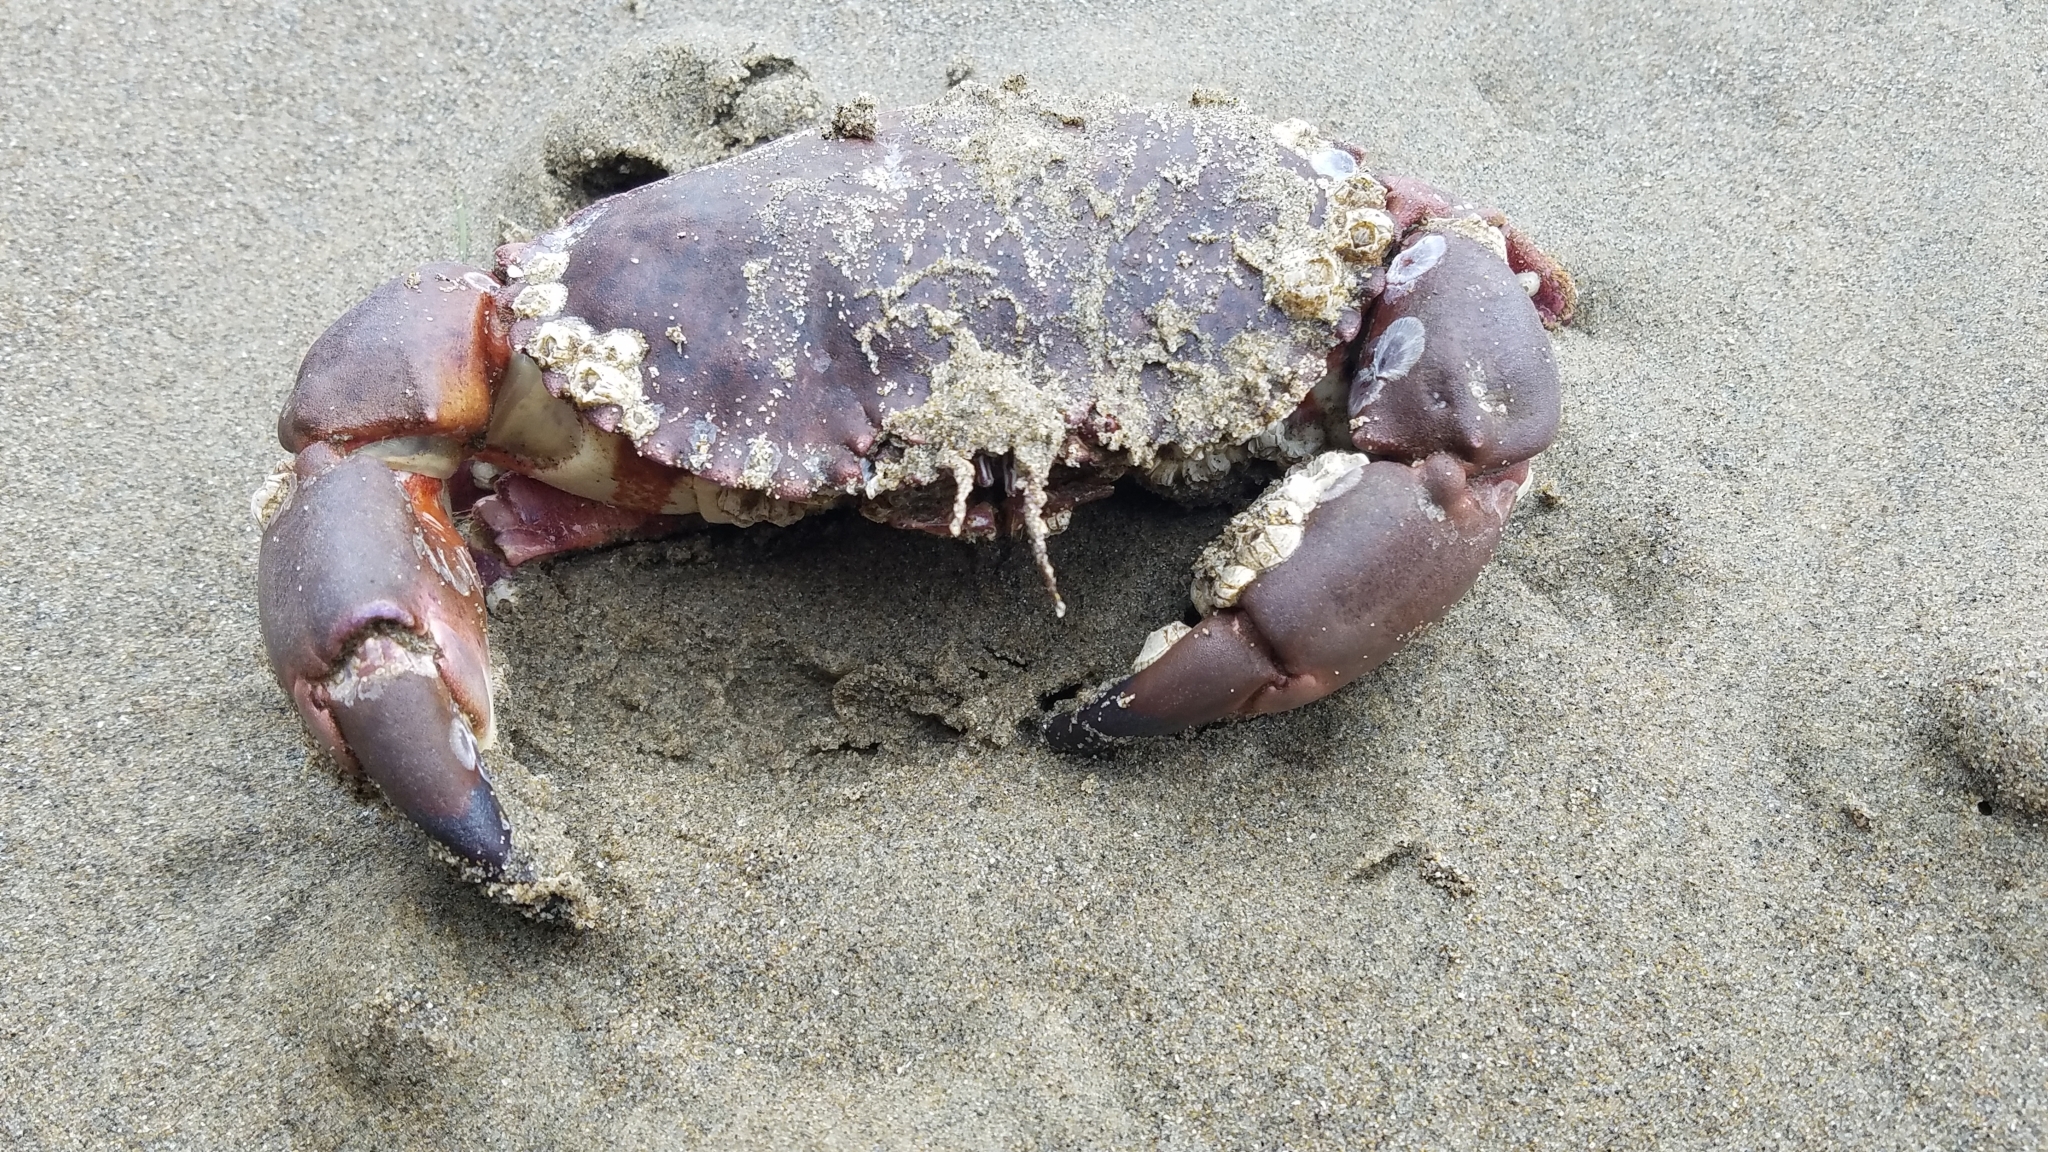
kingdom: Animalia
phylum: Arthropoda
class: Malacostraca
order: Decapoda
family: Cancridae
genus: Romaleon
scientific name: Romaleon antennarium
